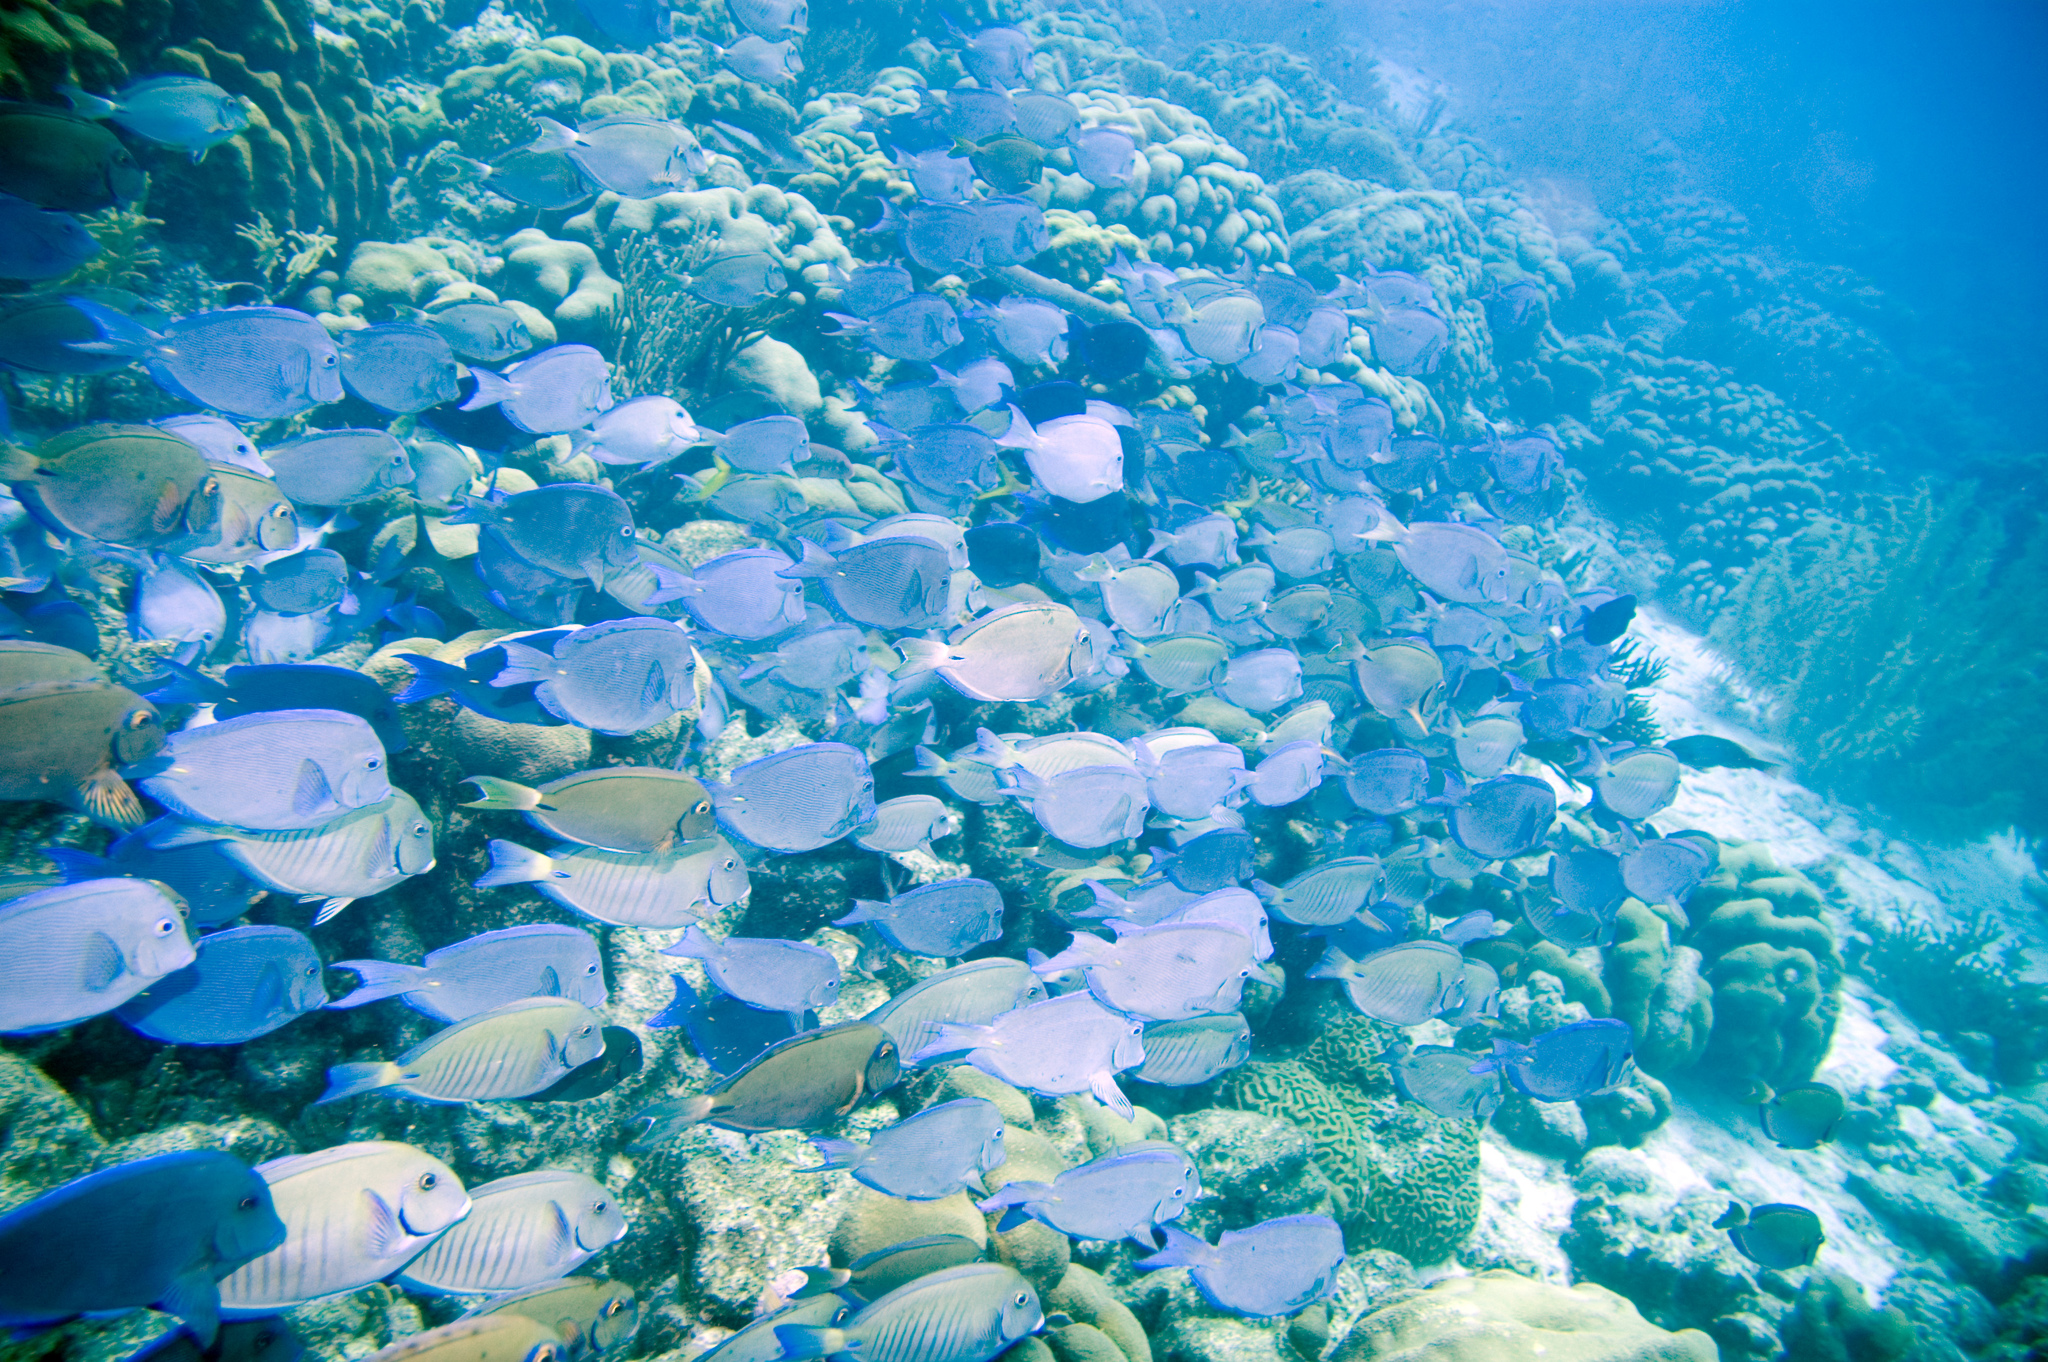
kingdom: Animalia
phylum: Chordata
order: Perciformes
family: Acanthuridae
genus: Acanthurus
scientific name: Acanthurus bahianus
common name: Ocean surgeon
